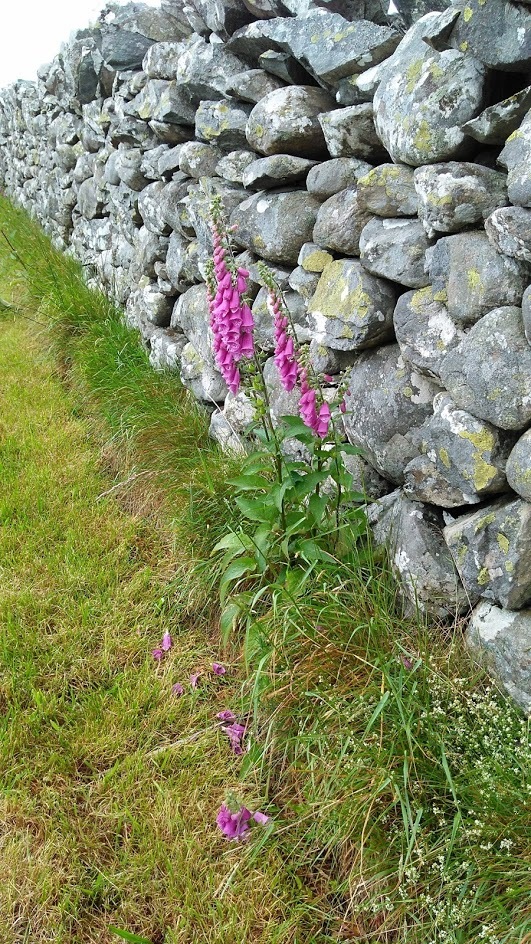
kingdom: Plantae
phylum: Tracheophyta
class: Magnoliopsida
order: Lamiales
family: Plantaginaceae
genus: Digitalis
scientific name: Digitalis purpurea
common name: Foxglove
